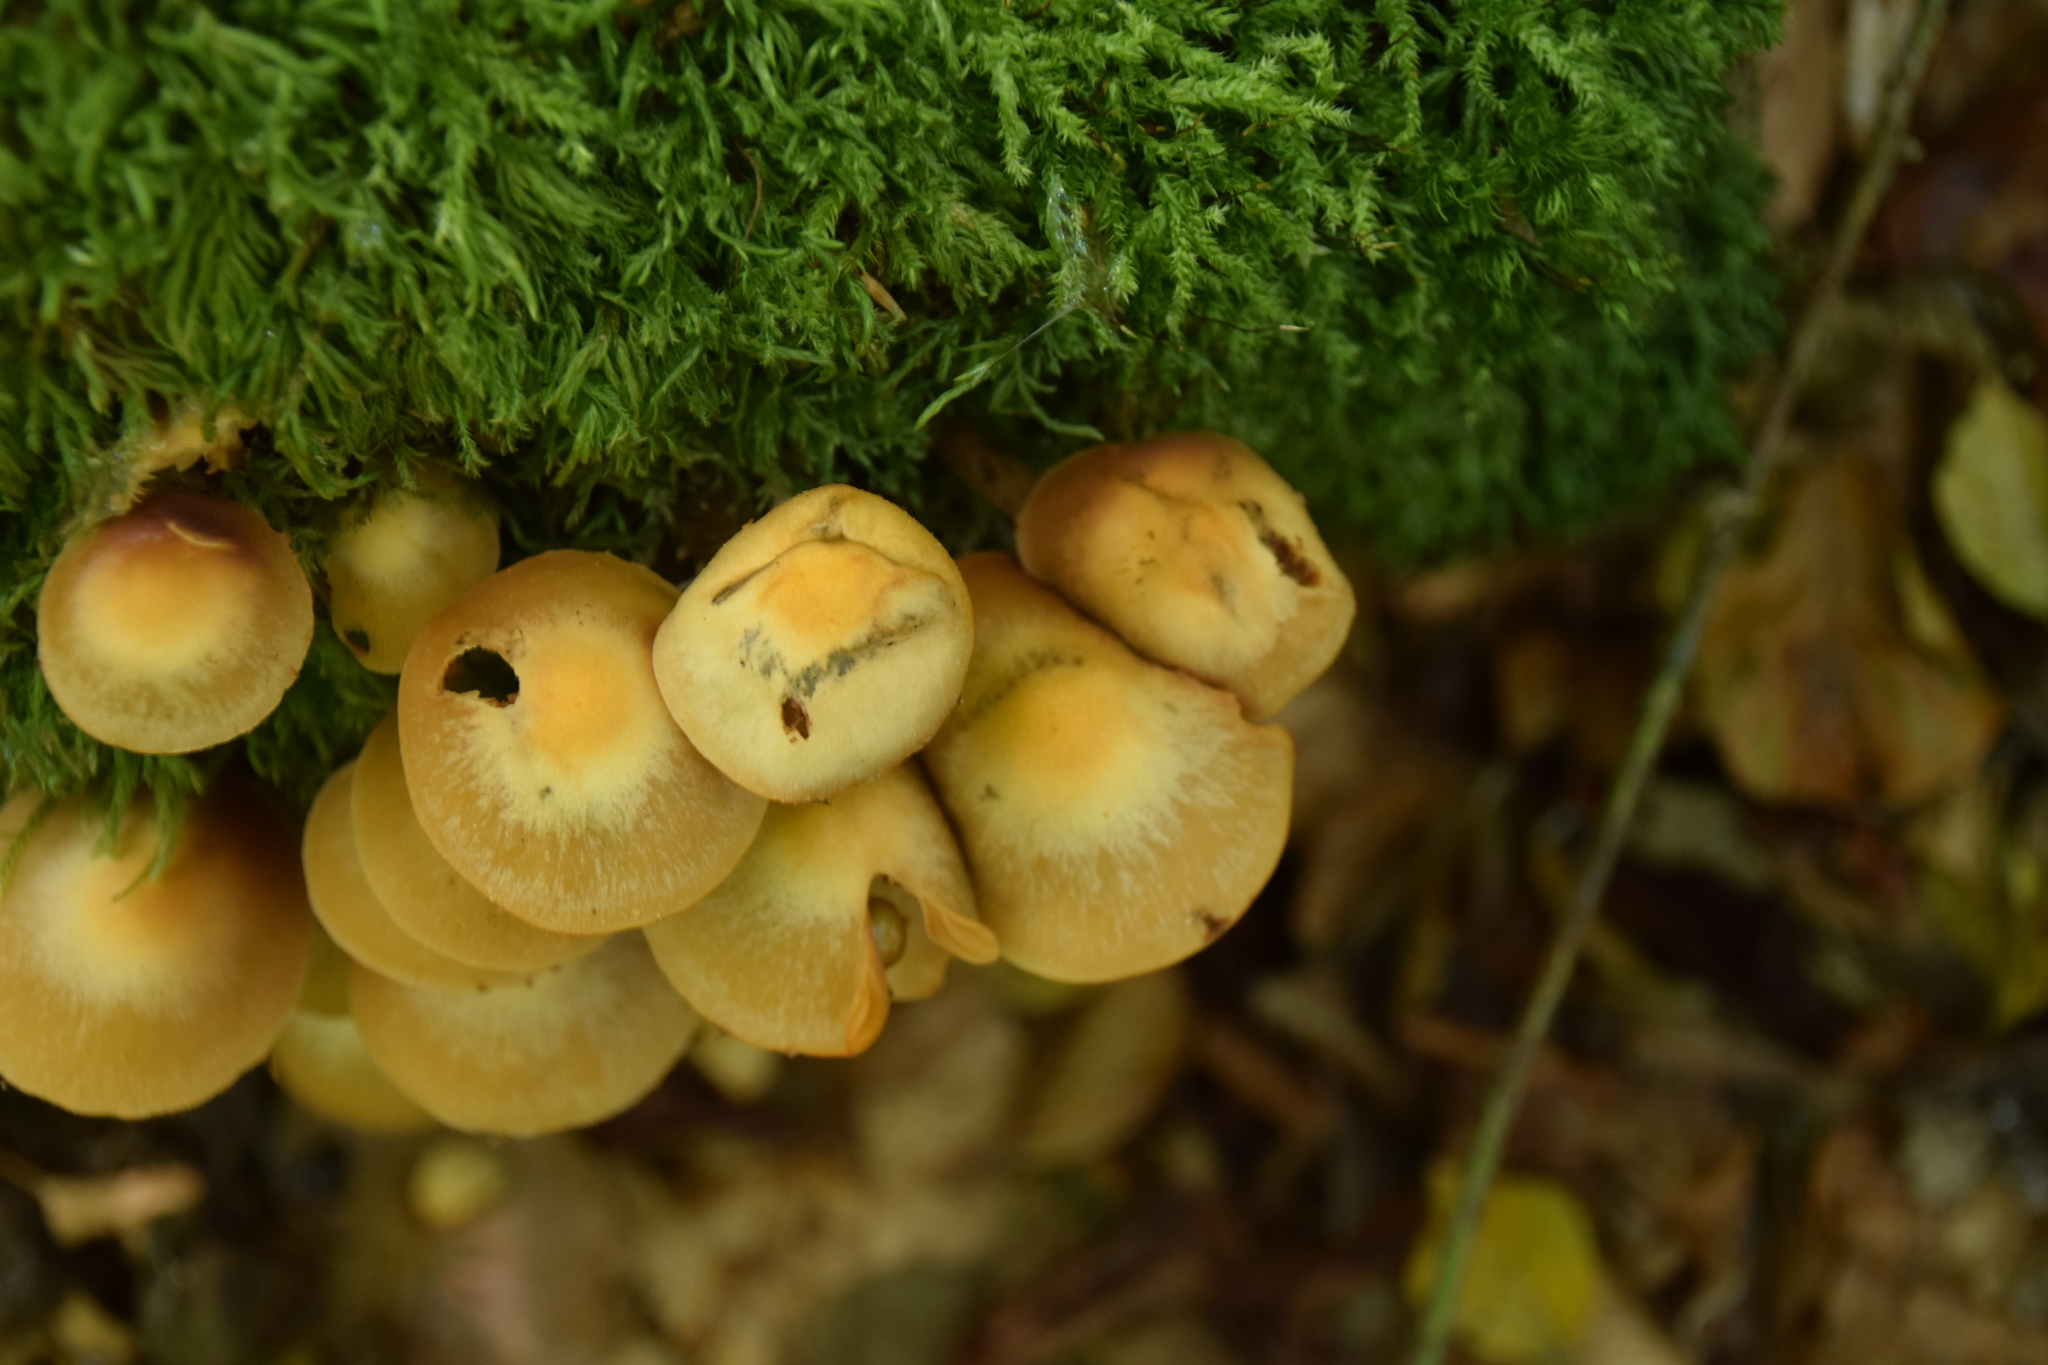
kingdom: Fungi
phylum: Basidiomycota
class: Agaricomycetes
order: Agaricales
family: Strophariaceae
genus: Kuehneromyces
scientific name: Kuehneromyces mutabilis
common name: Sheathed woodtuft
